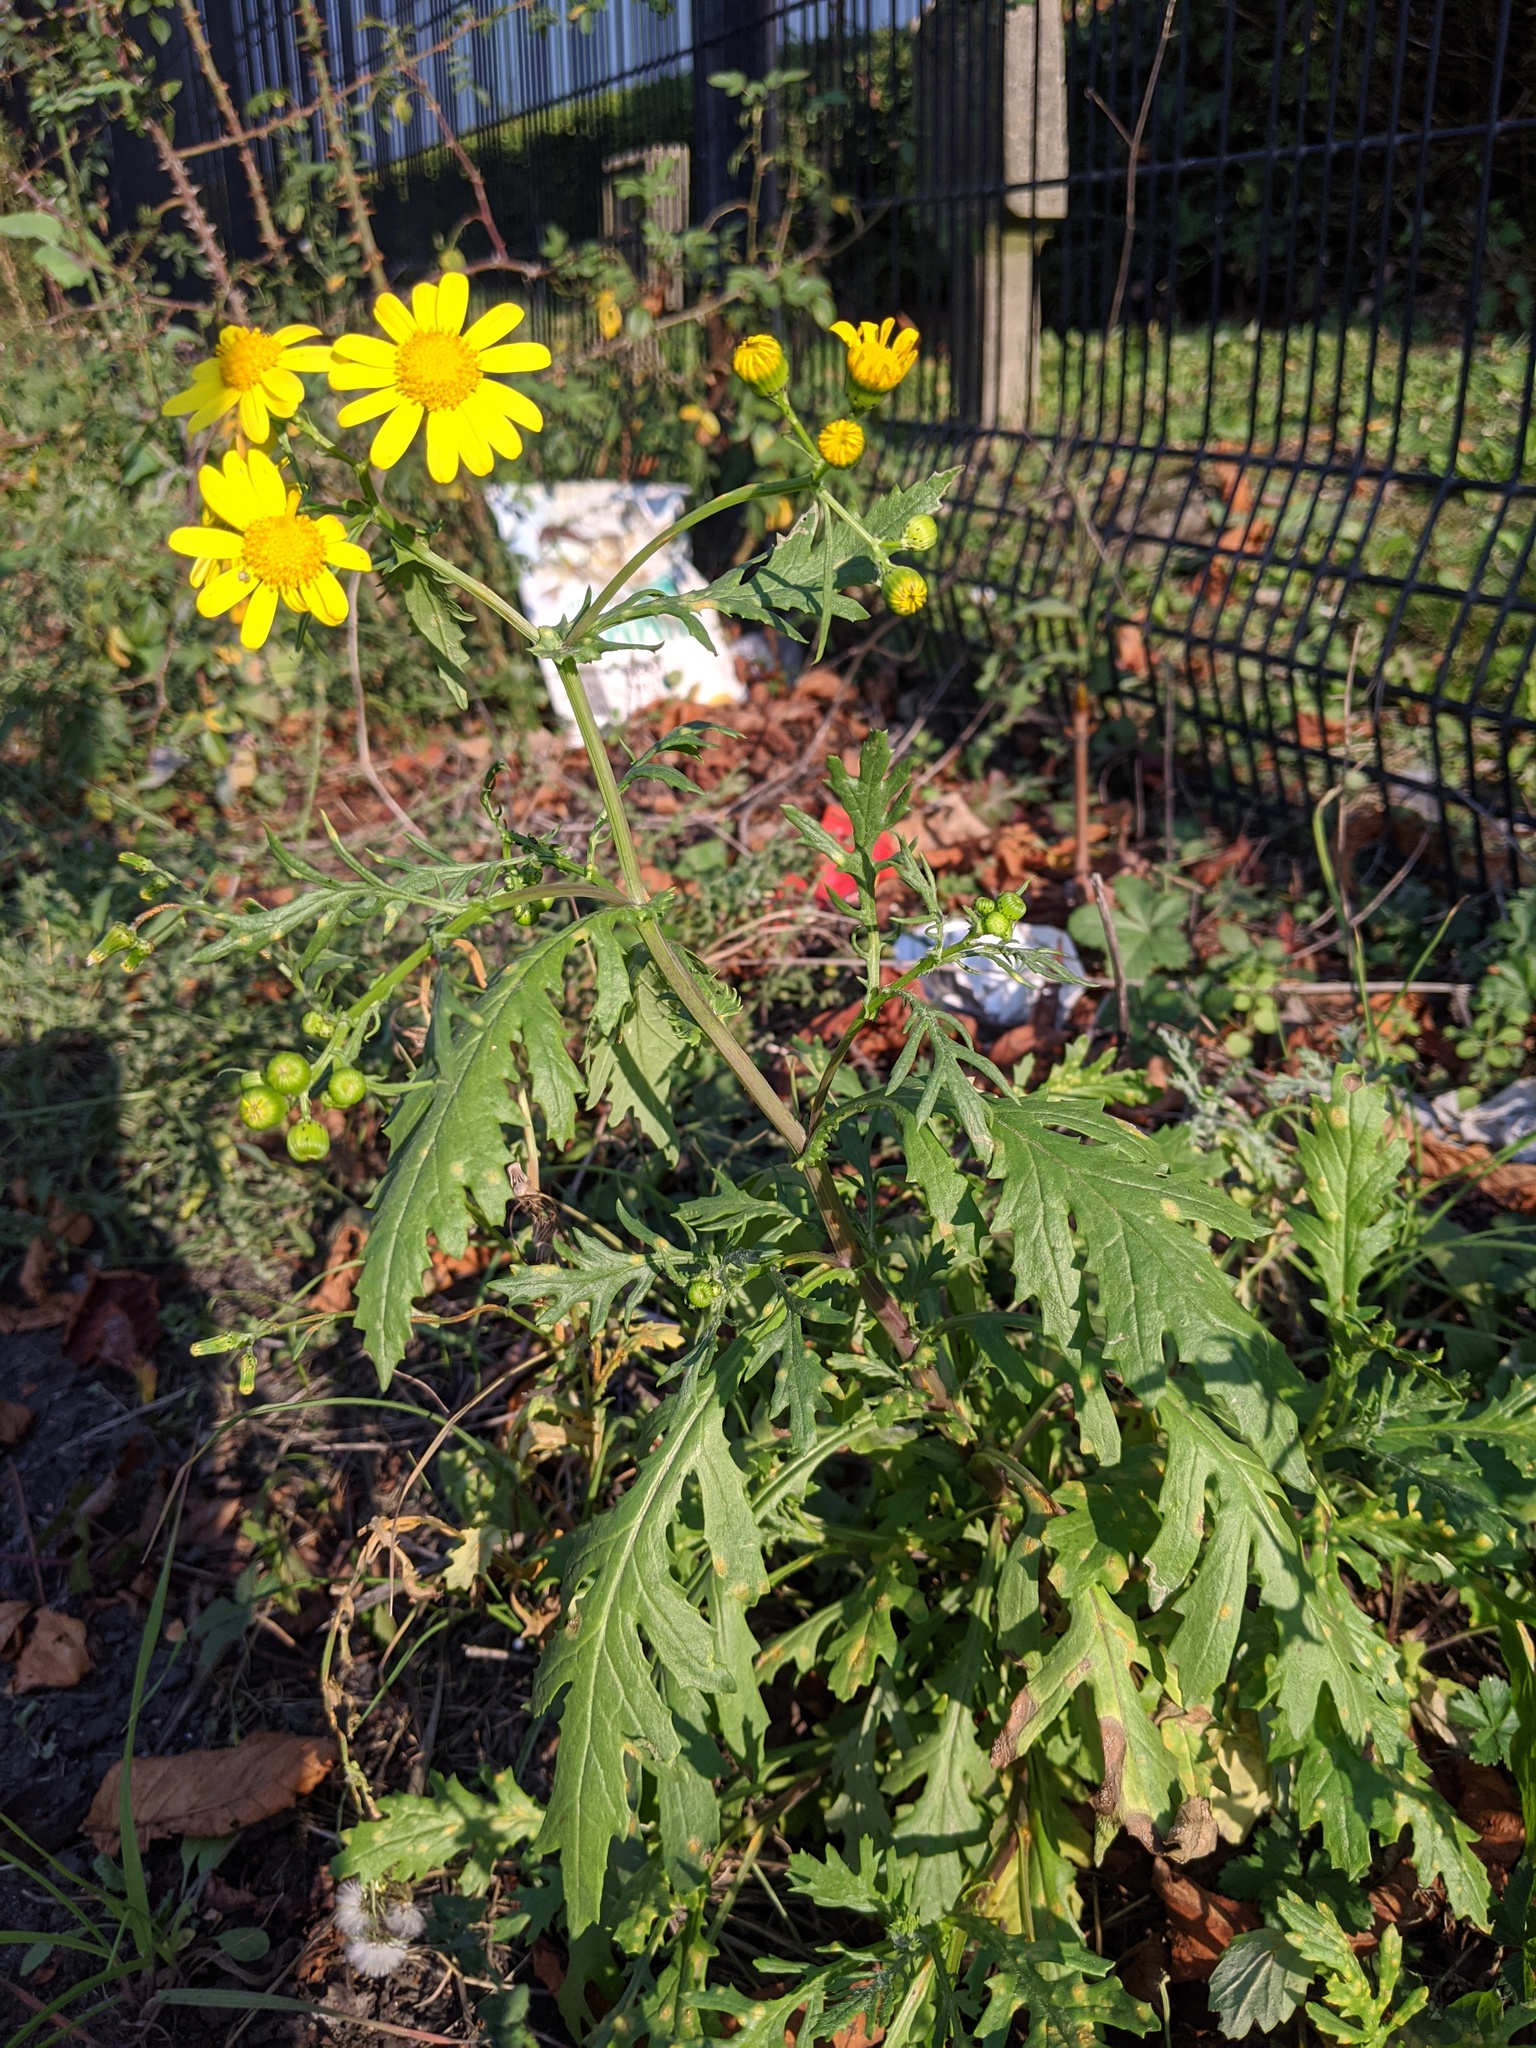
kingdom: Plantae
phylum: Tracheophyta
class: Magnoliopsida
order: Asterales
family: Asteraceae
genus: Senecio
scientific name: Senecio squalidus
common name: Oxford ragwort
